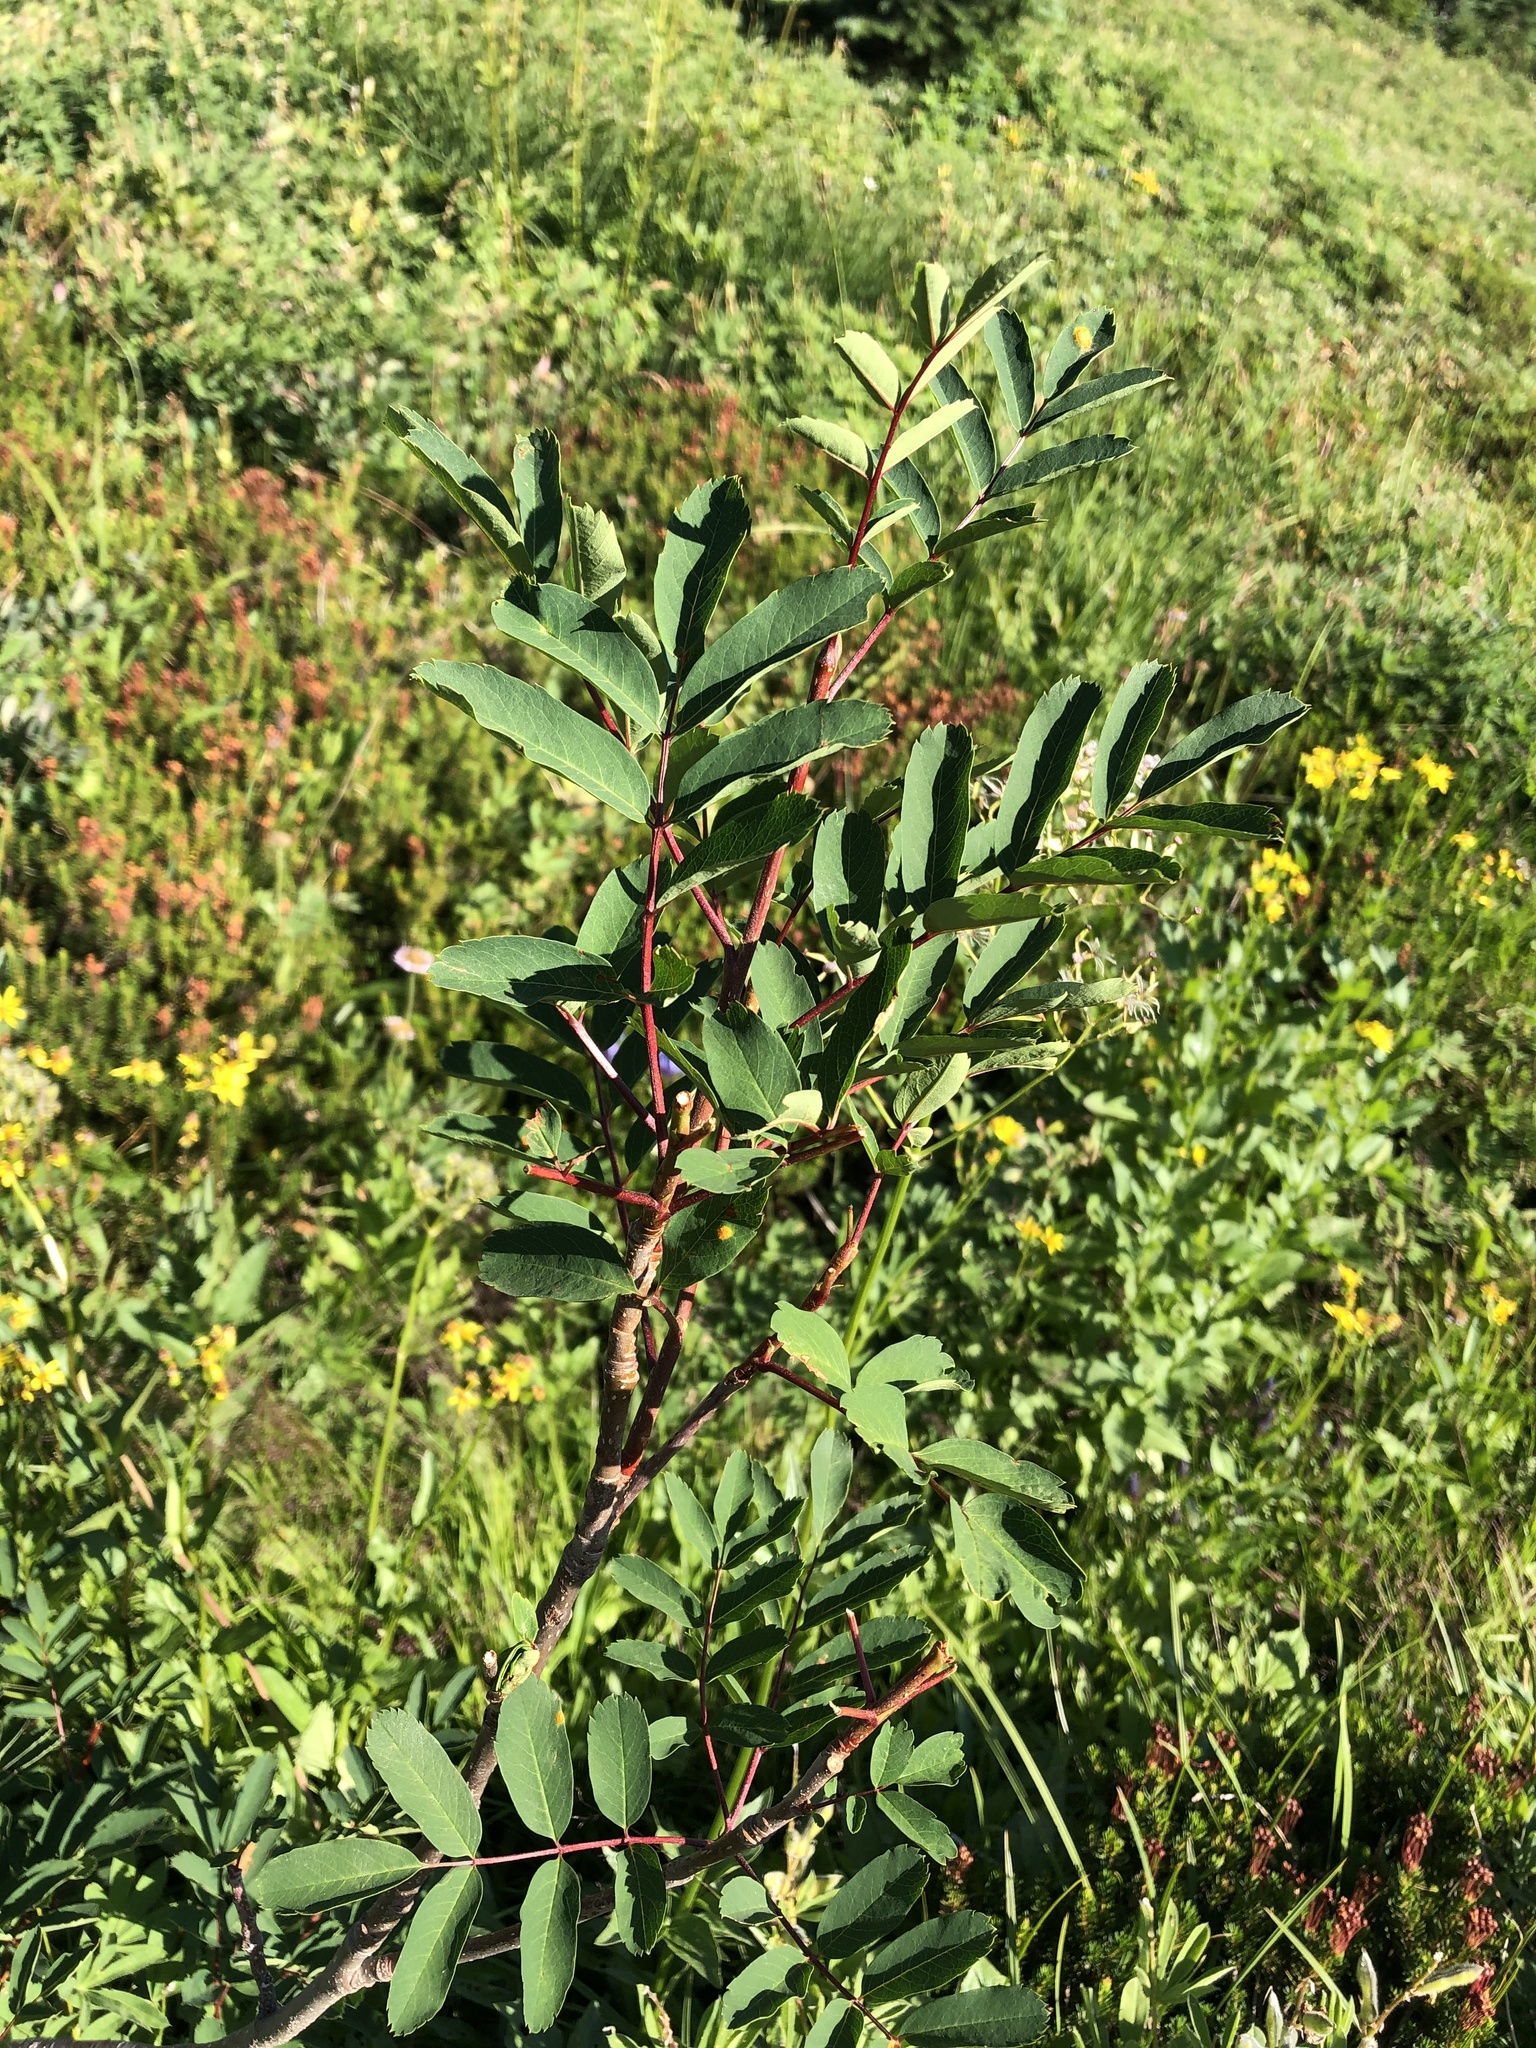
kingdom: Plantae
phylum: Tracheophyta
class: Magnoliopsida
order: Rosales
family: Rosaceae
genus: Sorbus
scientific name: Sorbus sitchensis
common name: Sitka mountain-ash
